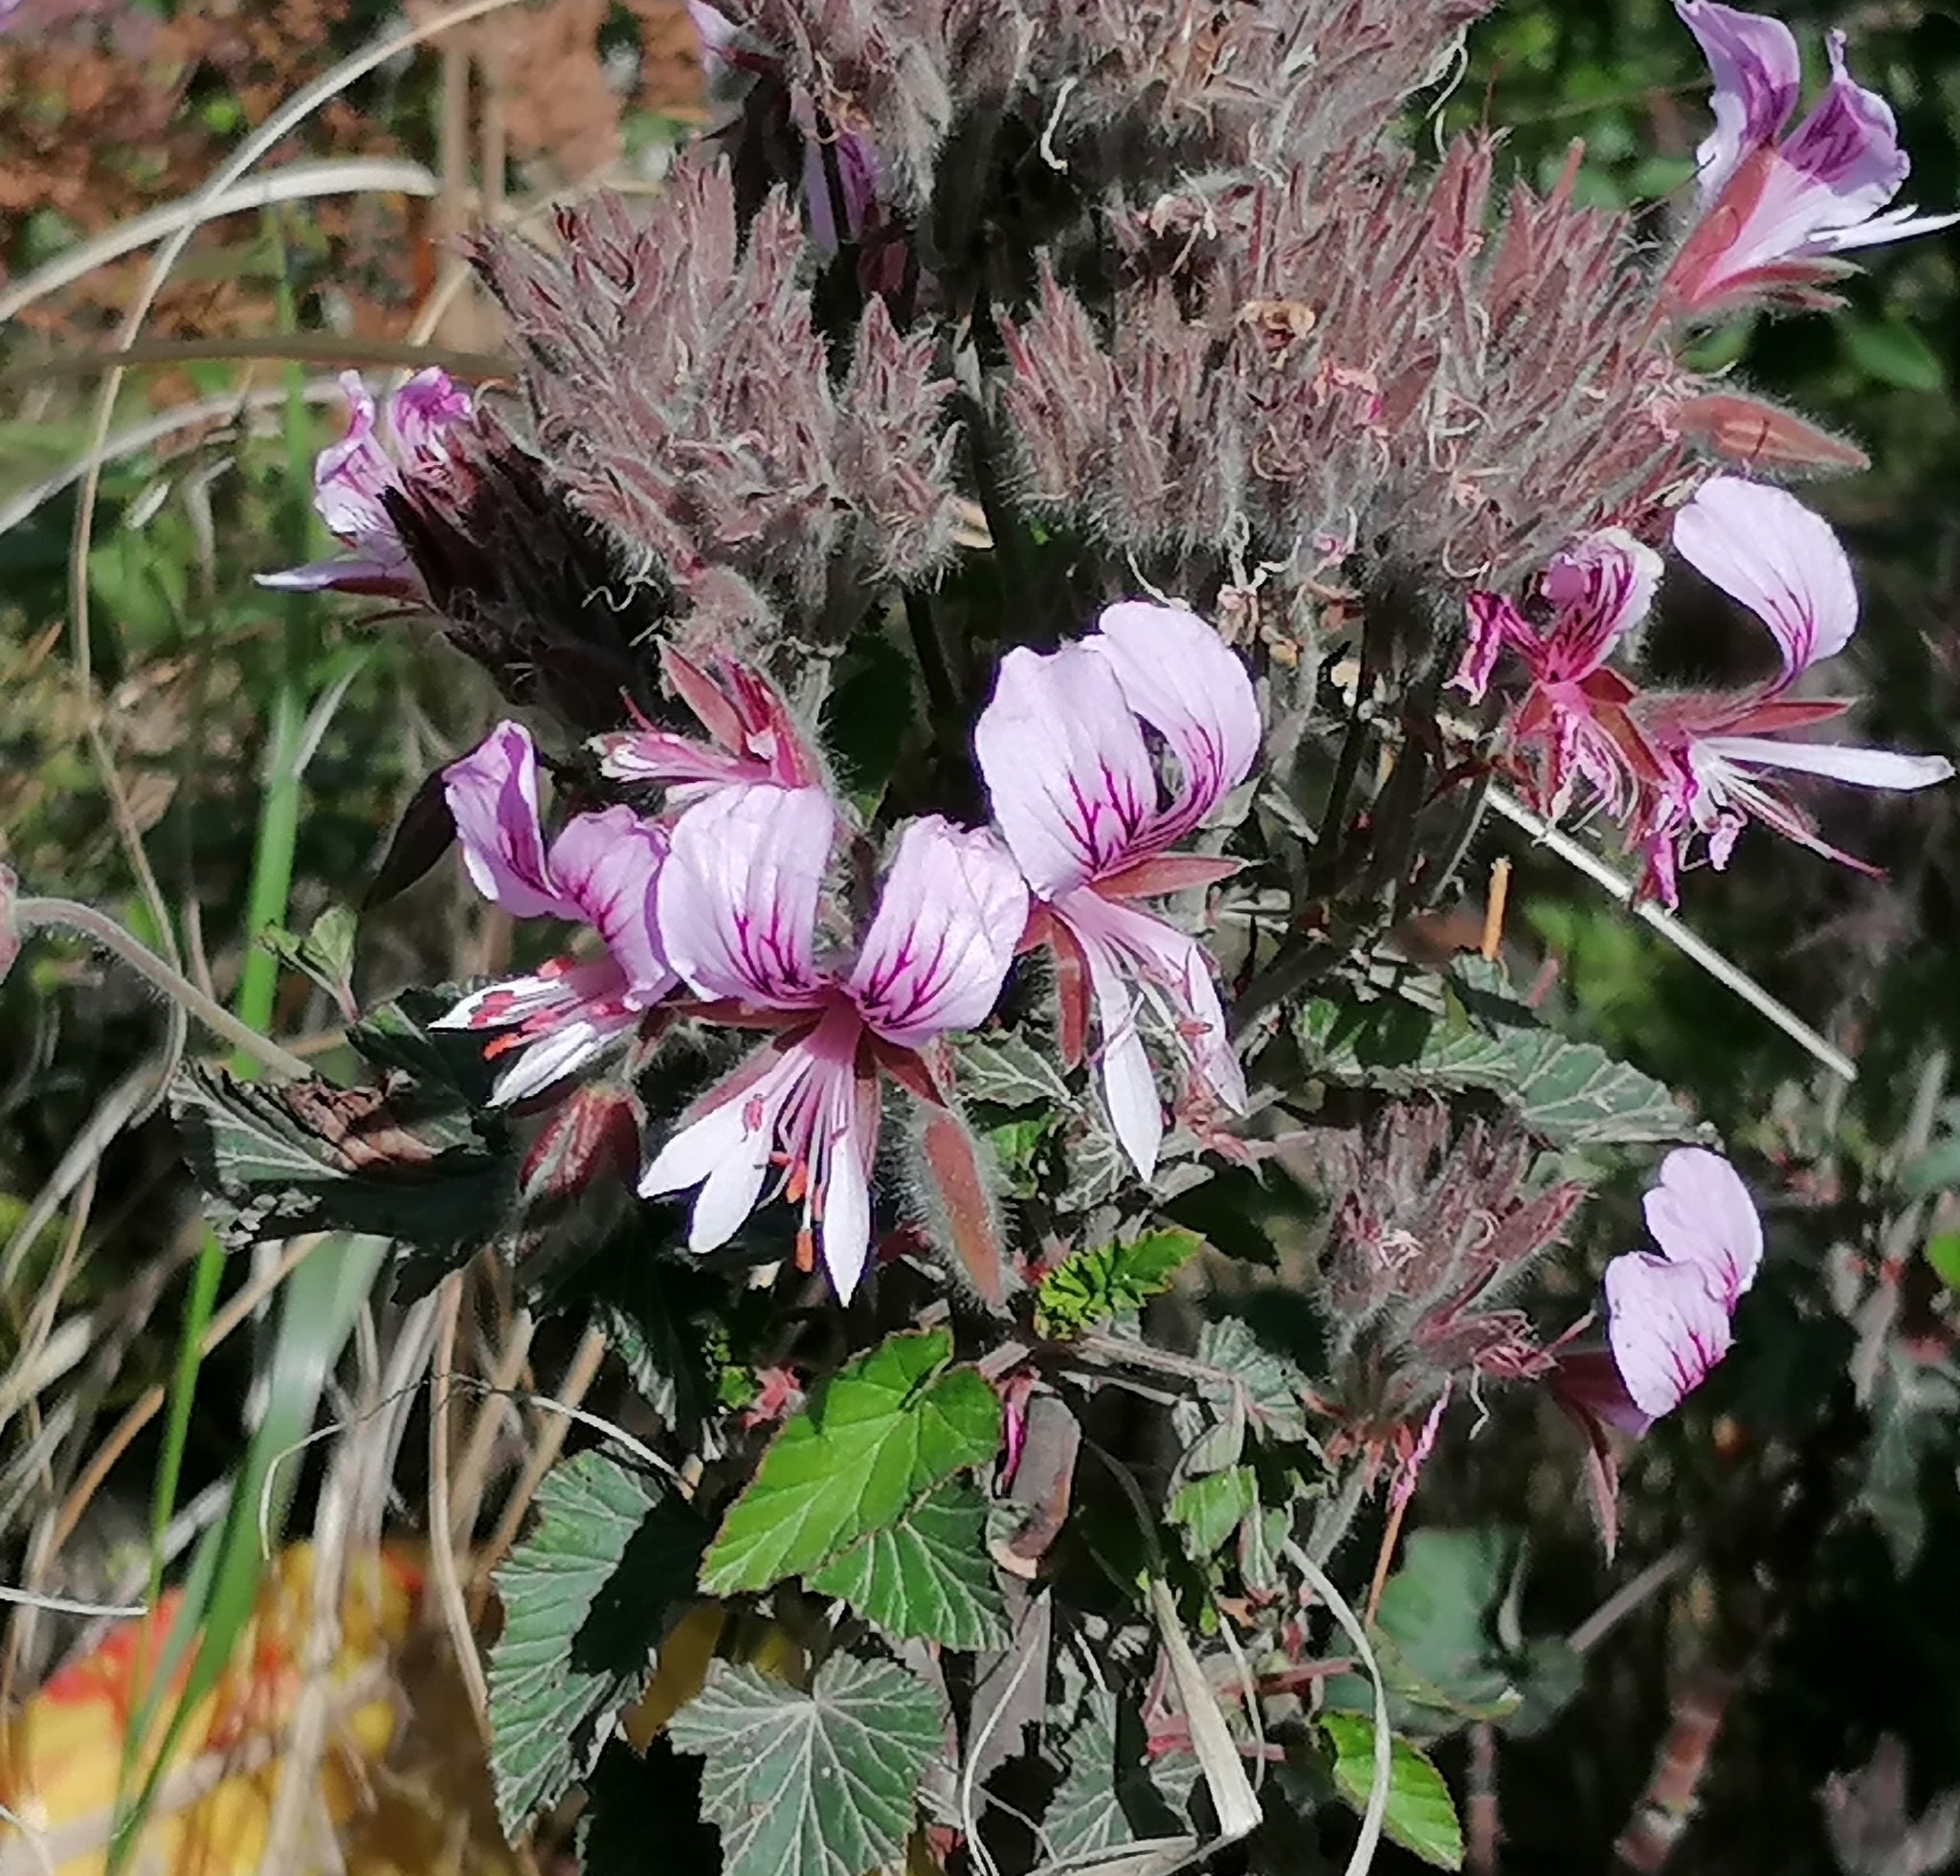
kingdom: Plantae
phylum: Tracheophyta
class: Magnoliopsida
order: Geraniales
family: Geraniaceae
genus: Pelargonium
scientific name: Pelargonium cordifolium
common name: Heart-leaf pelargonium
